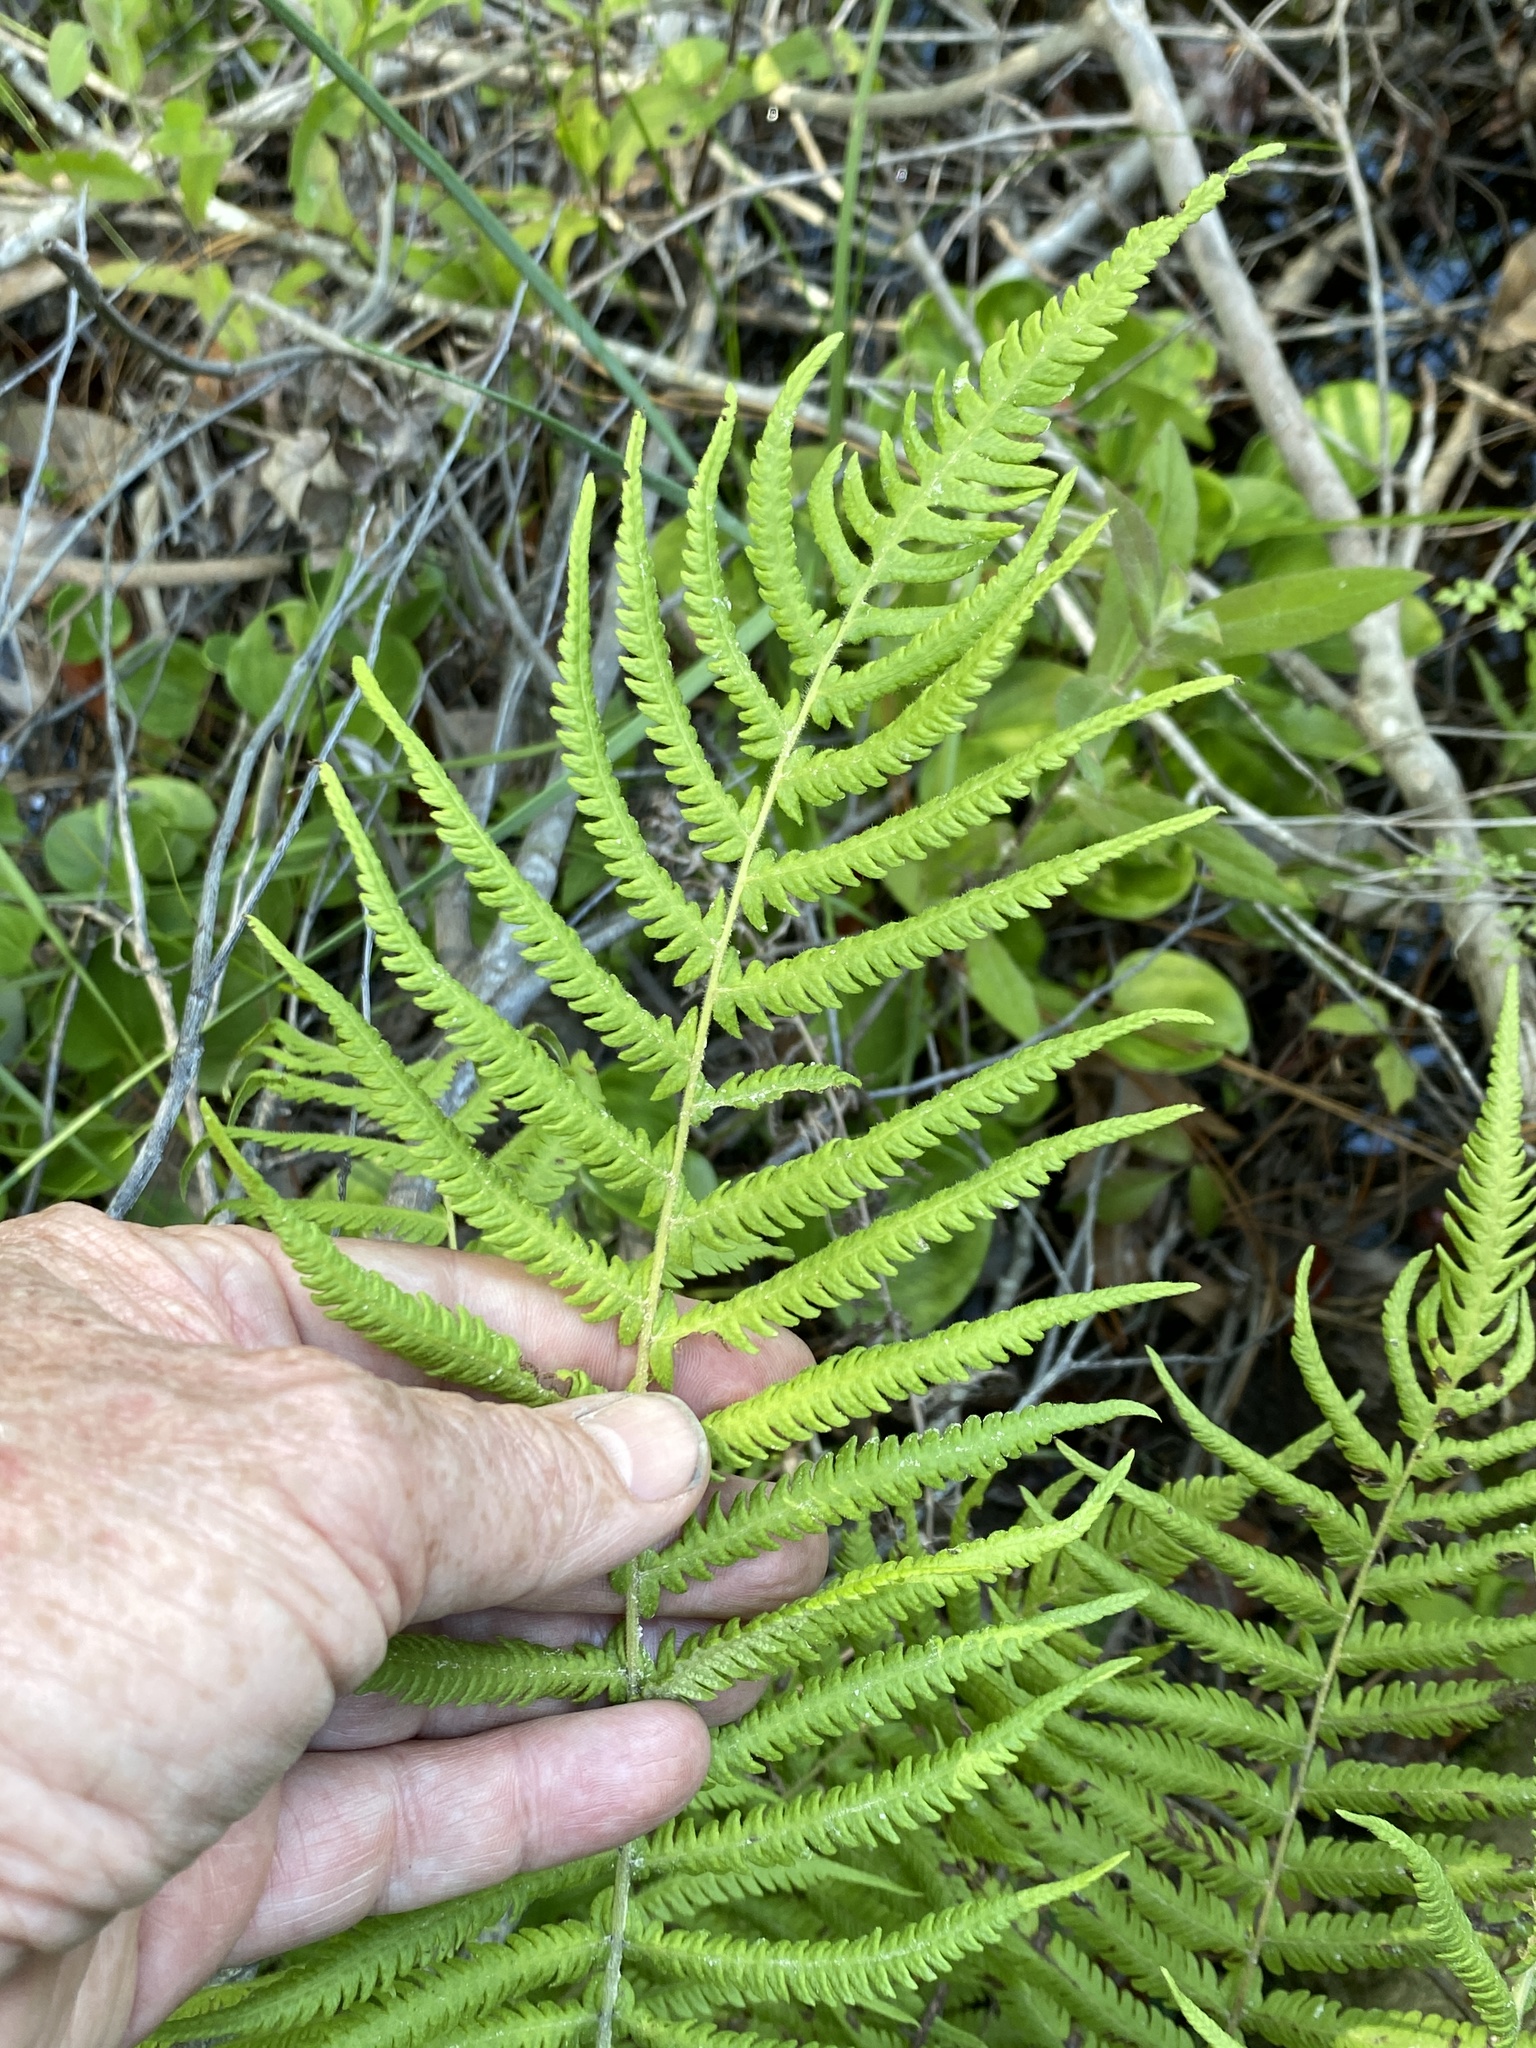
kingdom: Plantae
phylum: Tracheophyta
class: Polypodiopsida
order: Polypodiales
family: Thelypteridaceae
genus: Pelazoneuron
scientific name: Pelazoneuron kunthii
